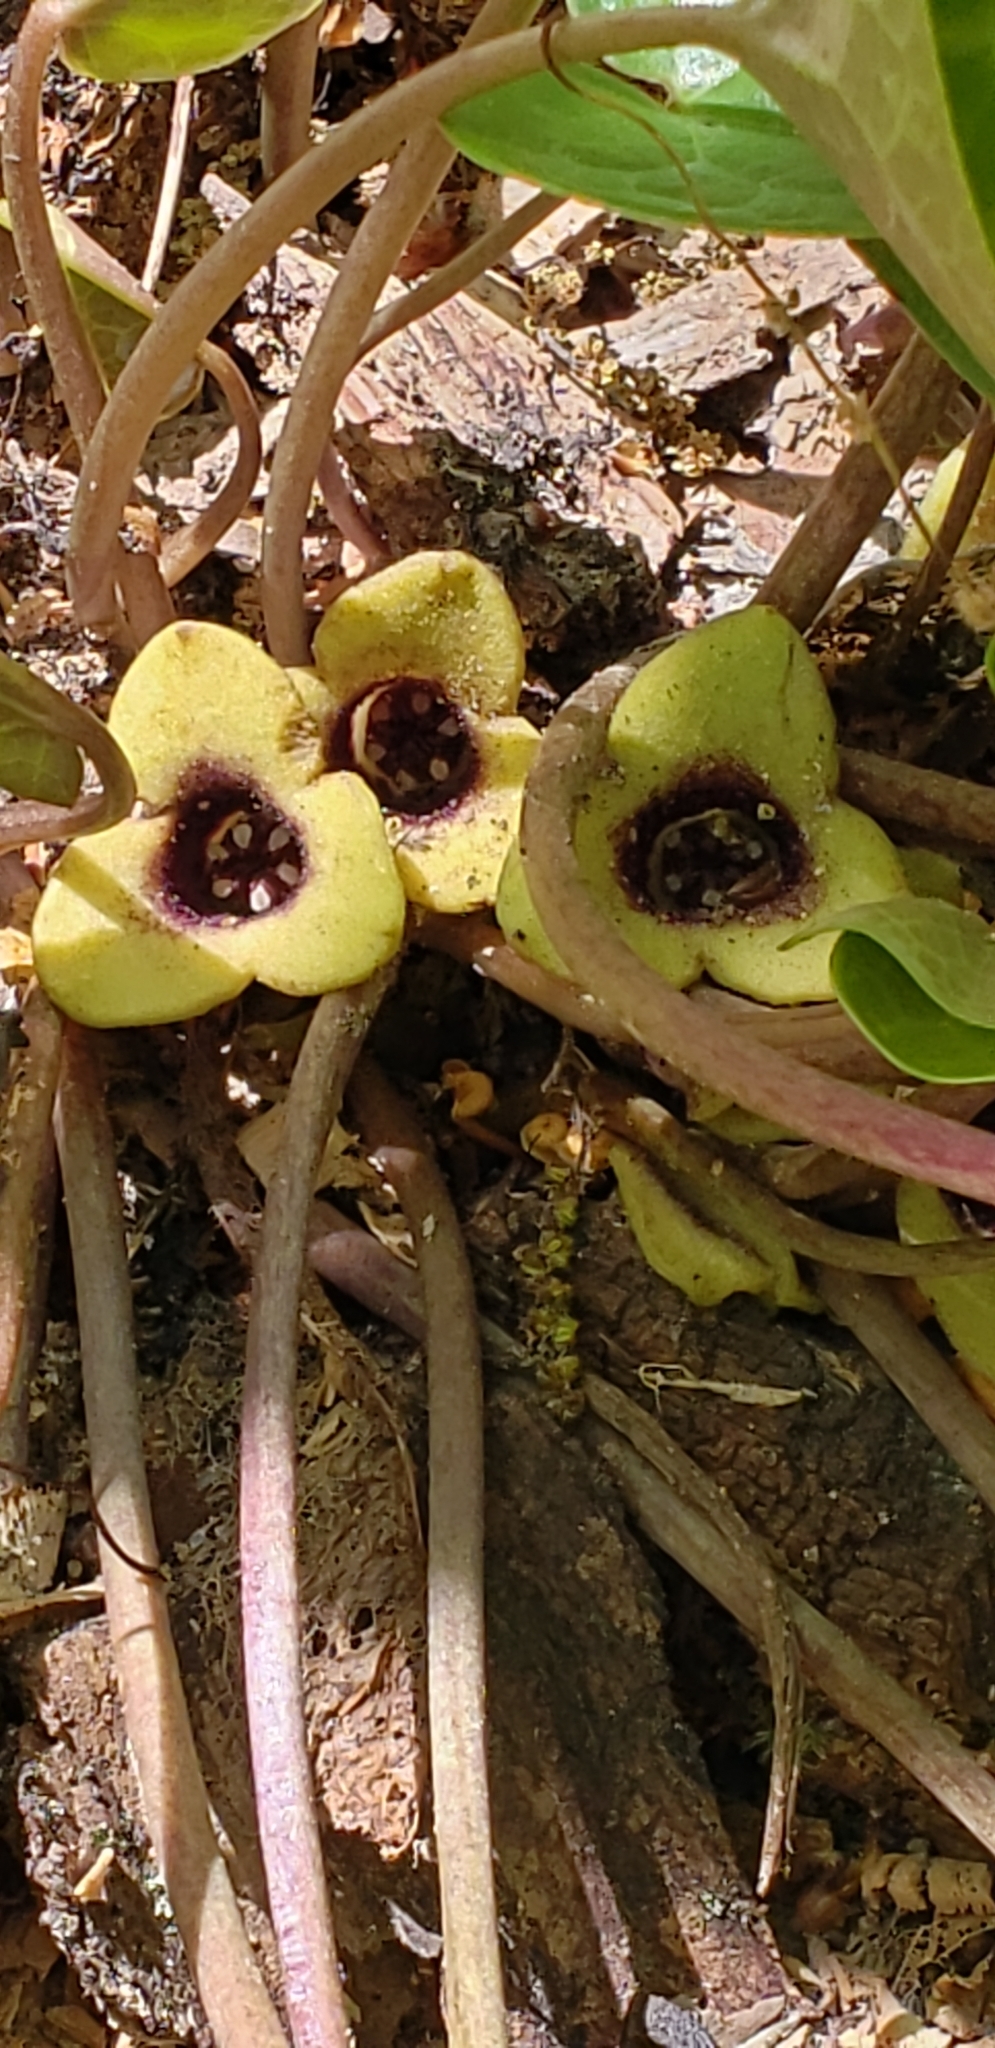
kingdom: Plantae
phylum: Tracheophyta
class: Magnoliopsida
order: Piperales
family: Aristolochiaceae
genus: Hexastylis
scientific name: Hexastylis naniflora
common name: Dwarf-flower heartleaf
